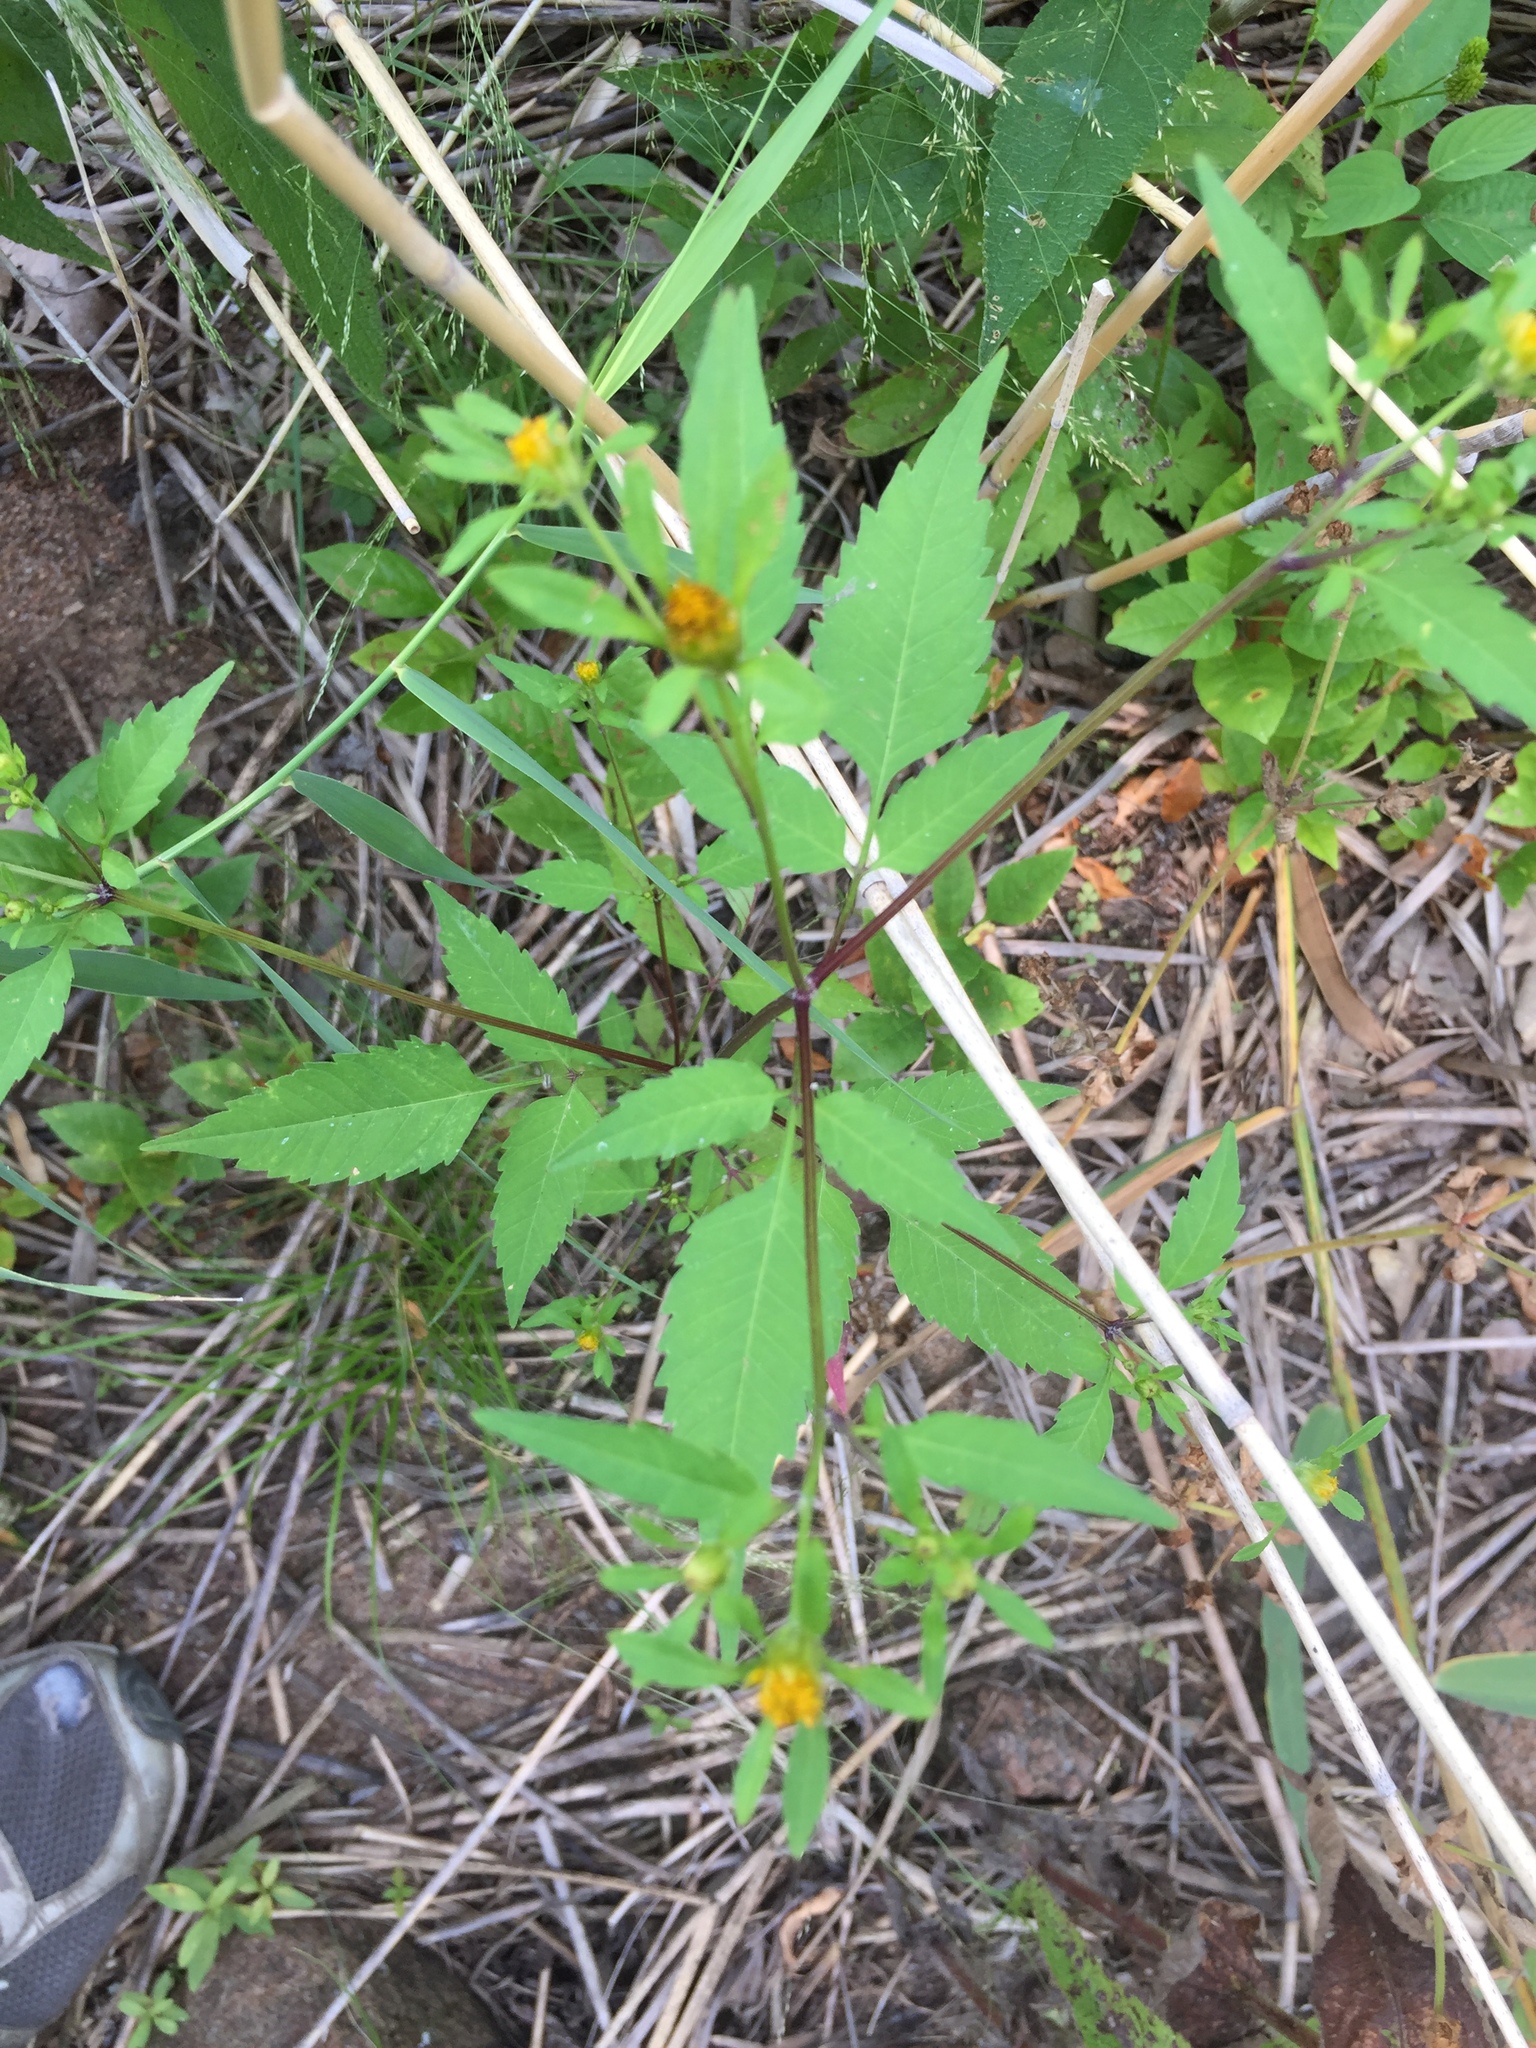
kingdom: Plantae
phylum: Tracheophyta
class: Magnoliopsida
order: Asterales
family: Asteraceae
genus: Bidens
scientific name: Bidens frondosa
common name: Beggarticks
